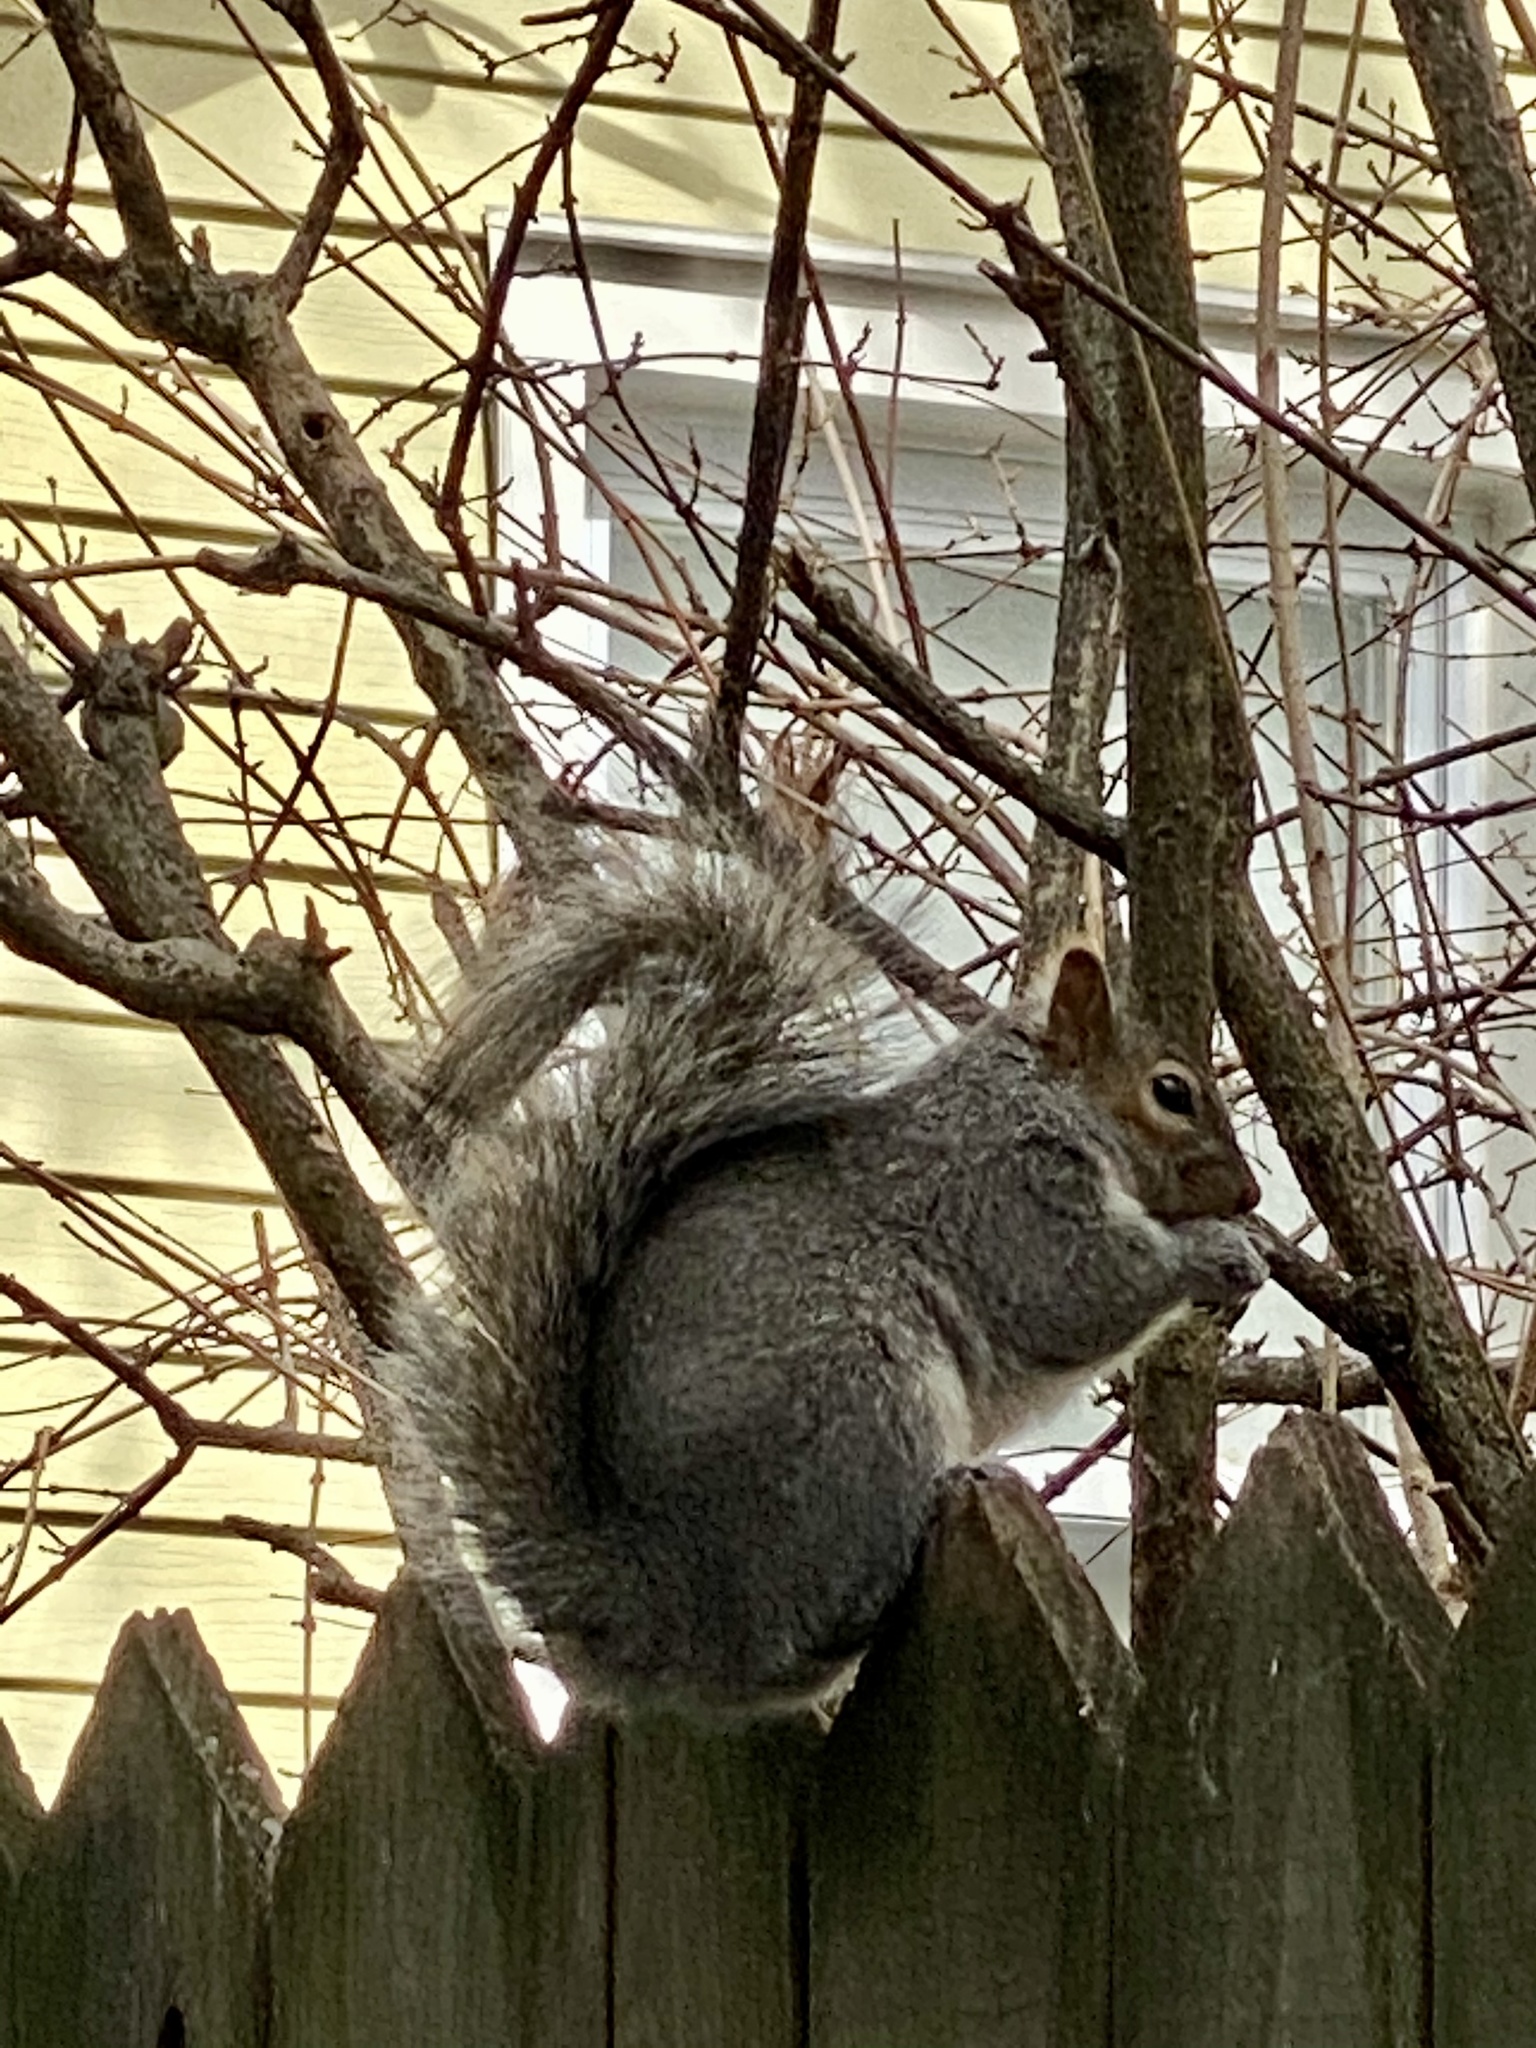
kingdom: Animalia
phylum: Chordata
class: Mammalia
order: Rodentia
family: Sciuridae
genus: Sciurus
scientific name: Sciurus carolinensis
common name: Eastern gray squirrel
